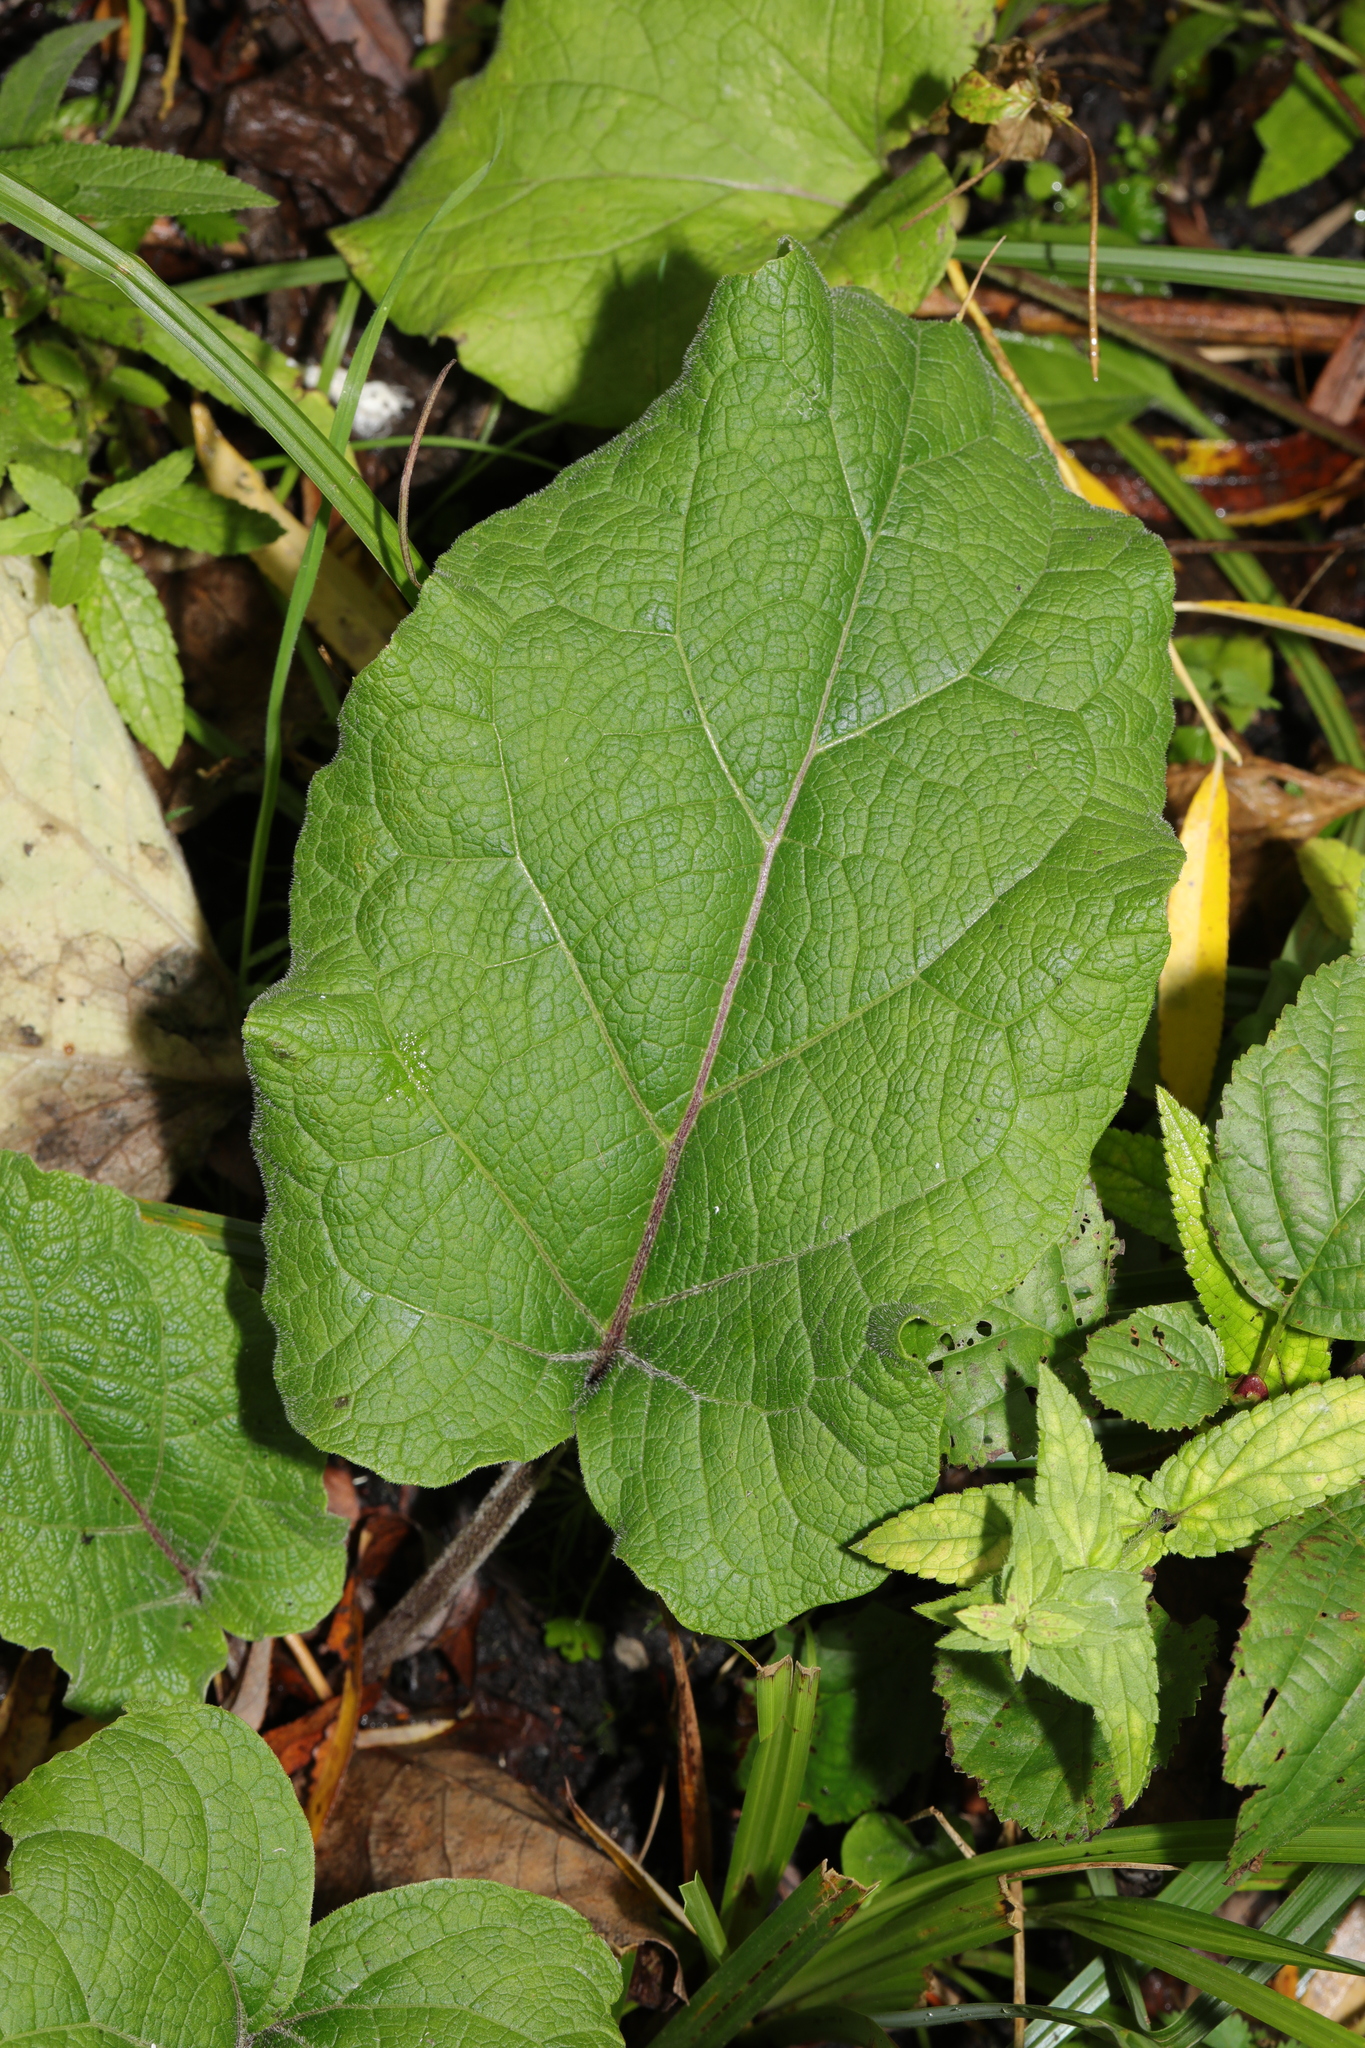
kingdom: Plantae
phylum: Tracheophyta
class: Magnoliopsida
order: Asterales
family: Asteraceae
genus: Arctium
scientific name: Arctium minus
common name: Lesser burdock
